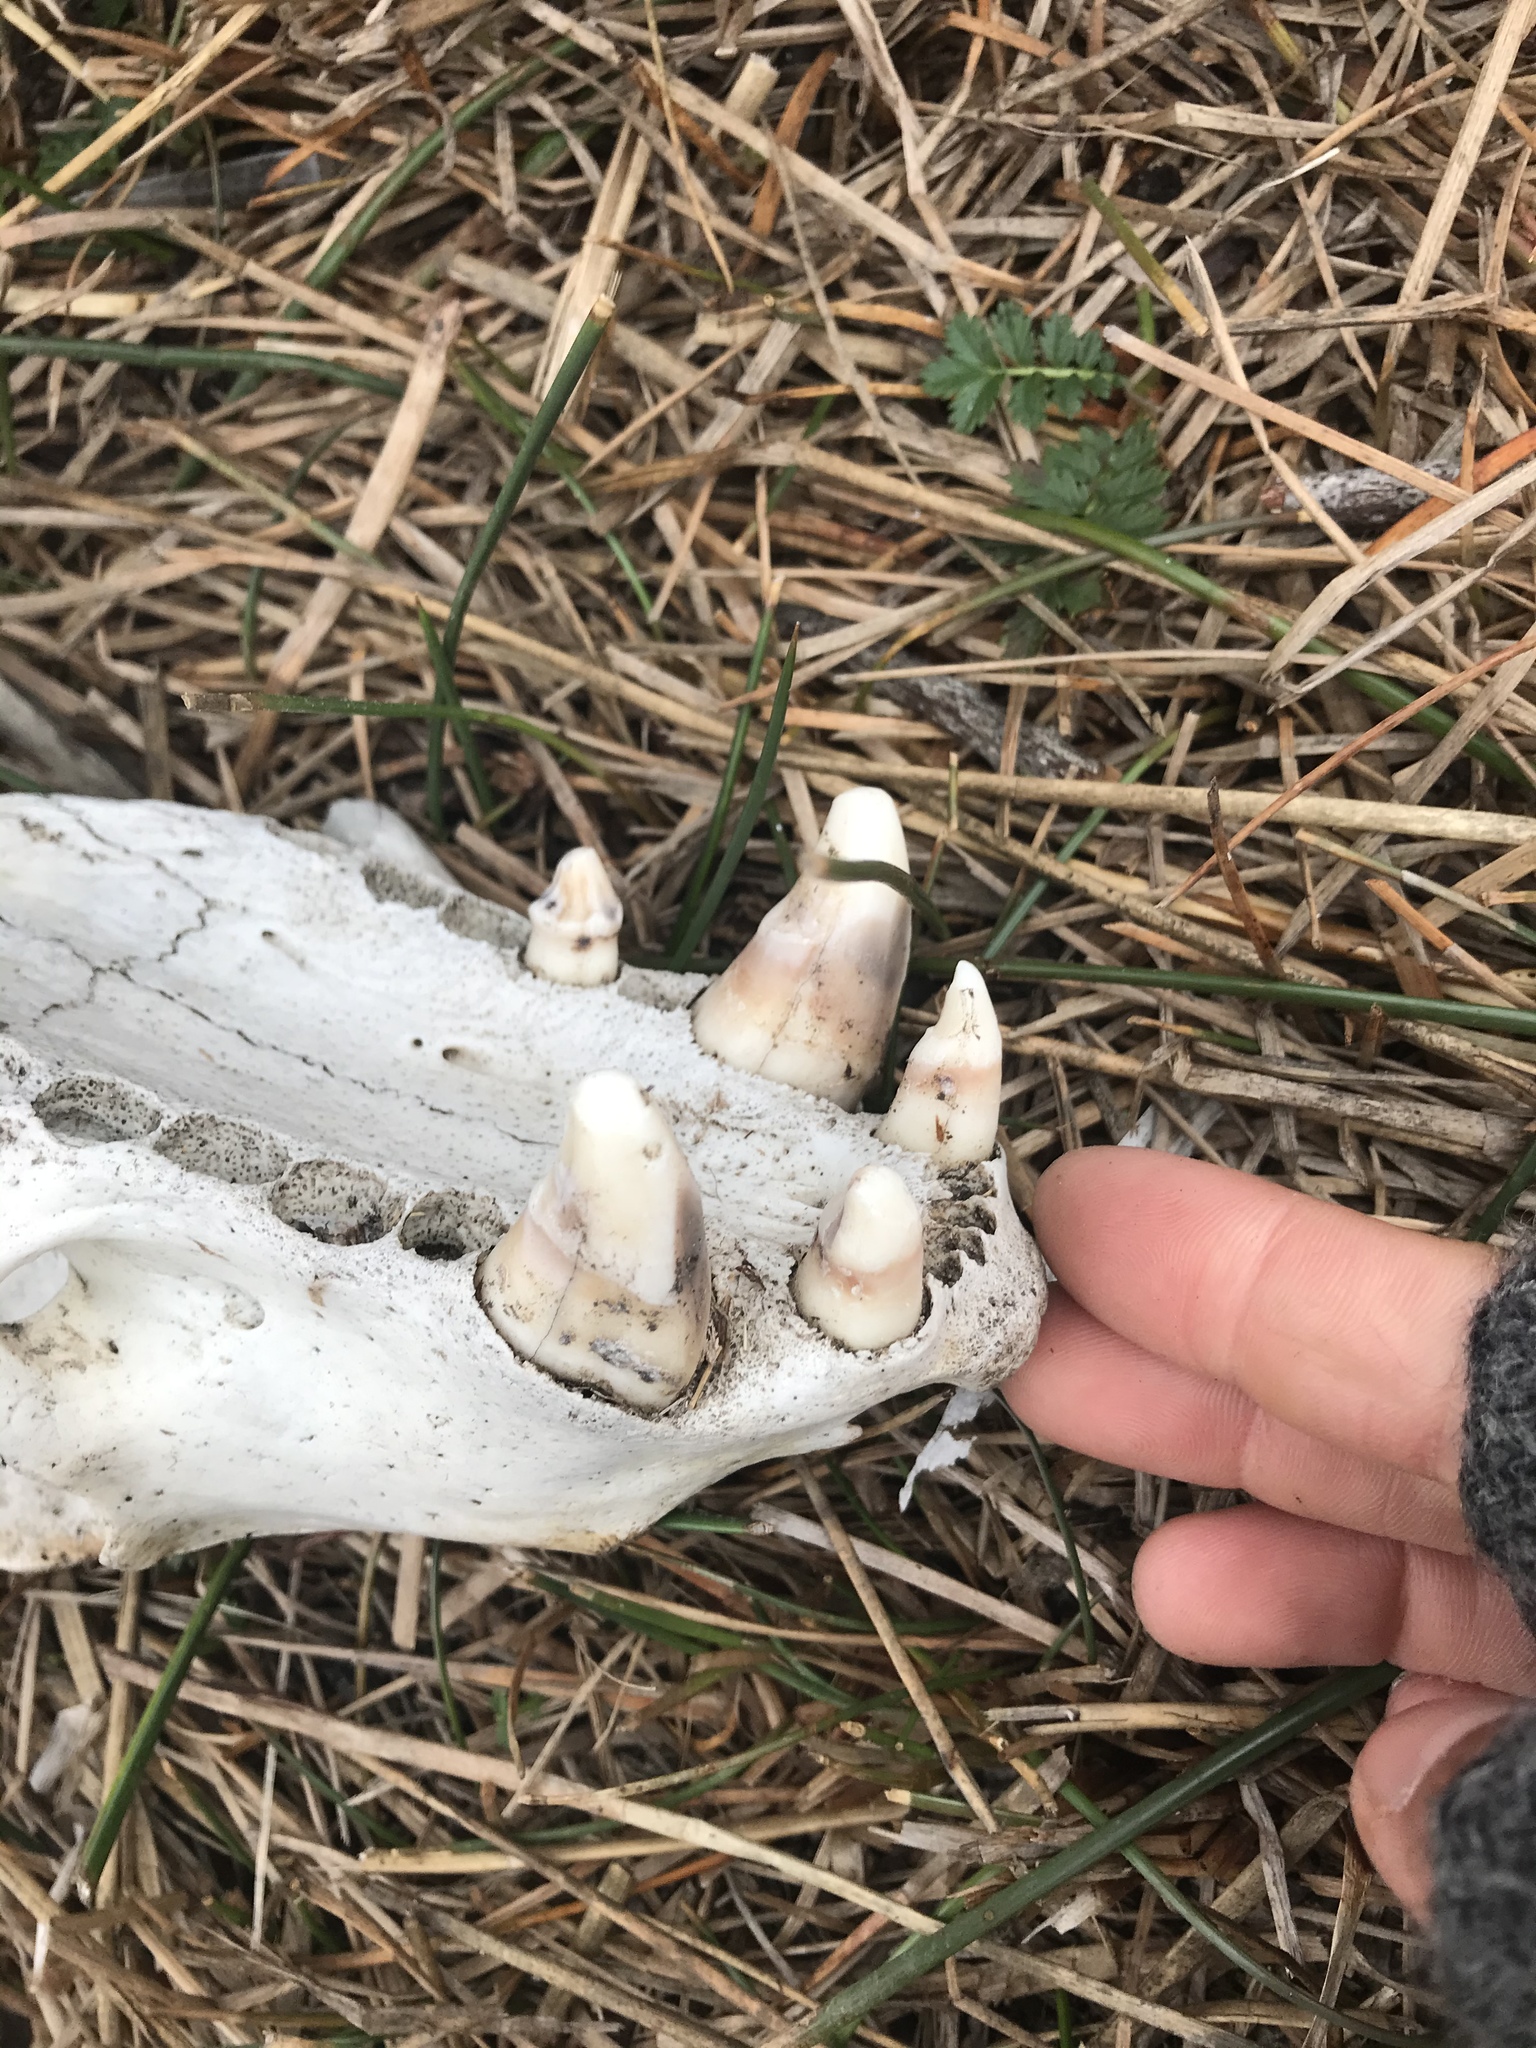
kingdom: Animalia
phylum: Chordata
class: Mammalia
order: Carnivora
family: Otariidae
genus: Zalophus
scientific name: Zalophus californianus
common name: California sea lion
